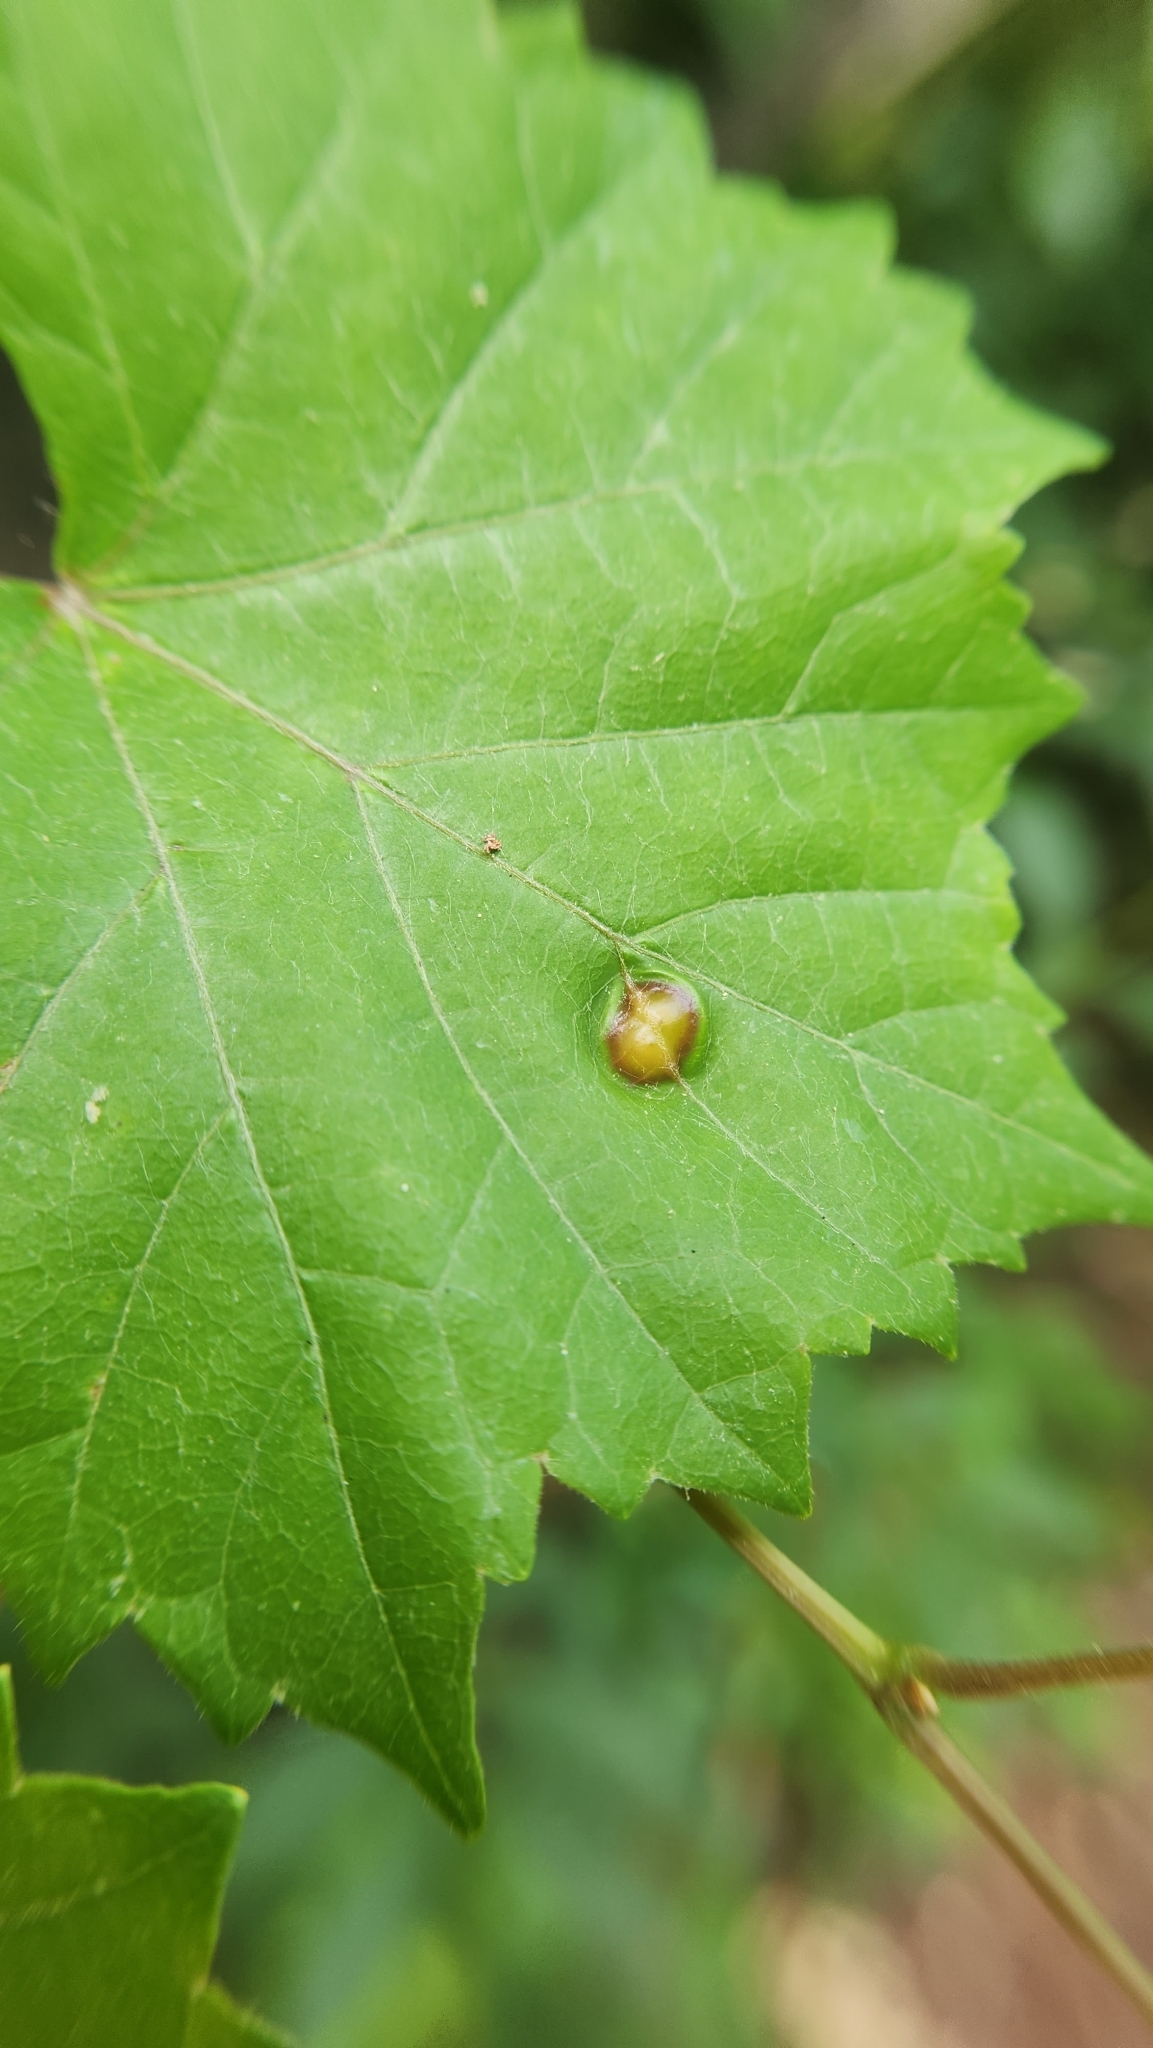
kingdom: Animalia
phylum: Arthropoda
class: Insecta
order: Diptera
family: Cecidomyiidae
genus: Vitisiella
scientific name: Vitisiella brevicauda
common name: Grape tumid gallmaker midge
